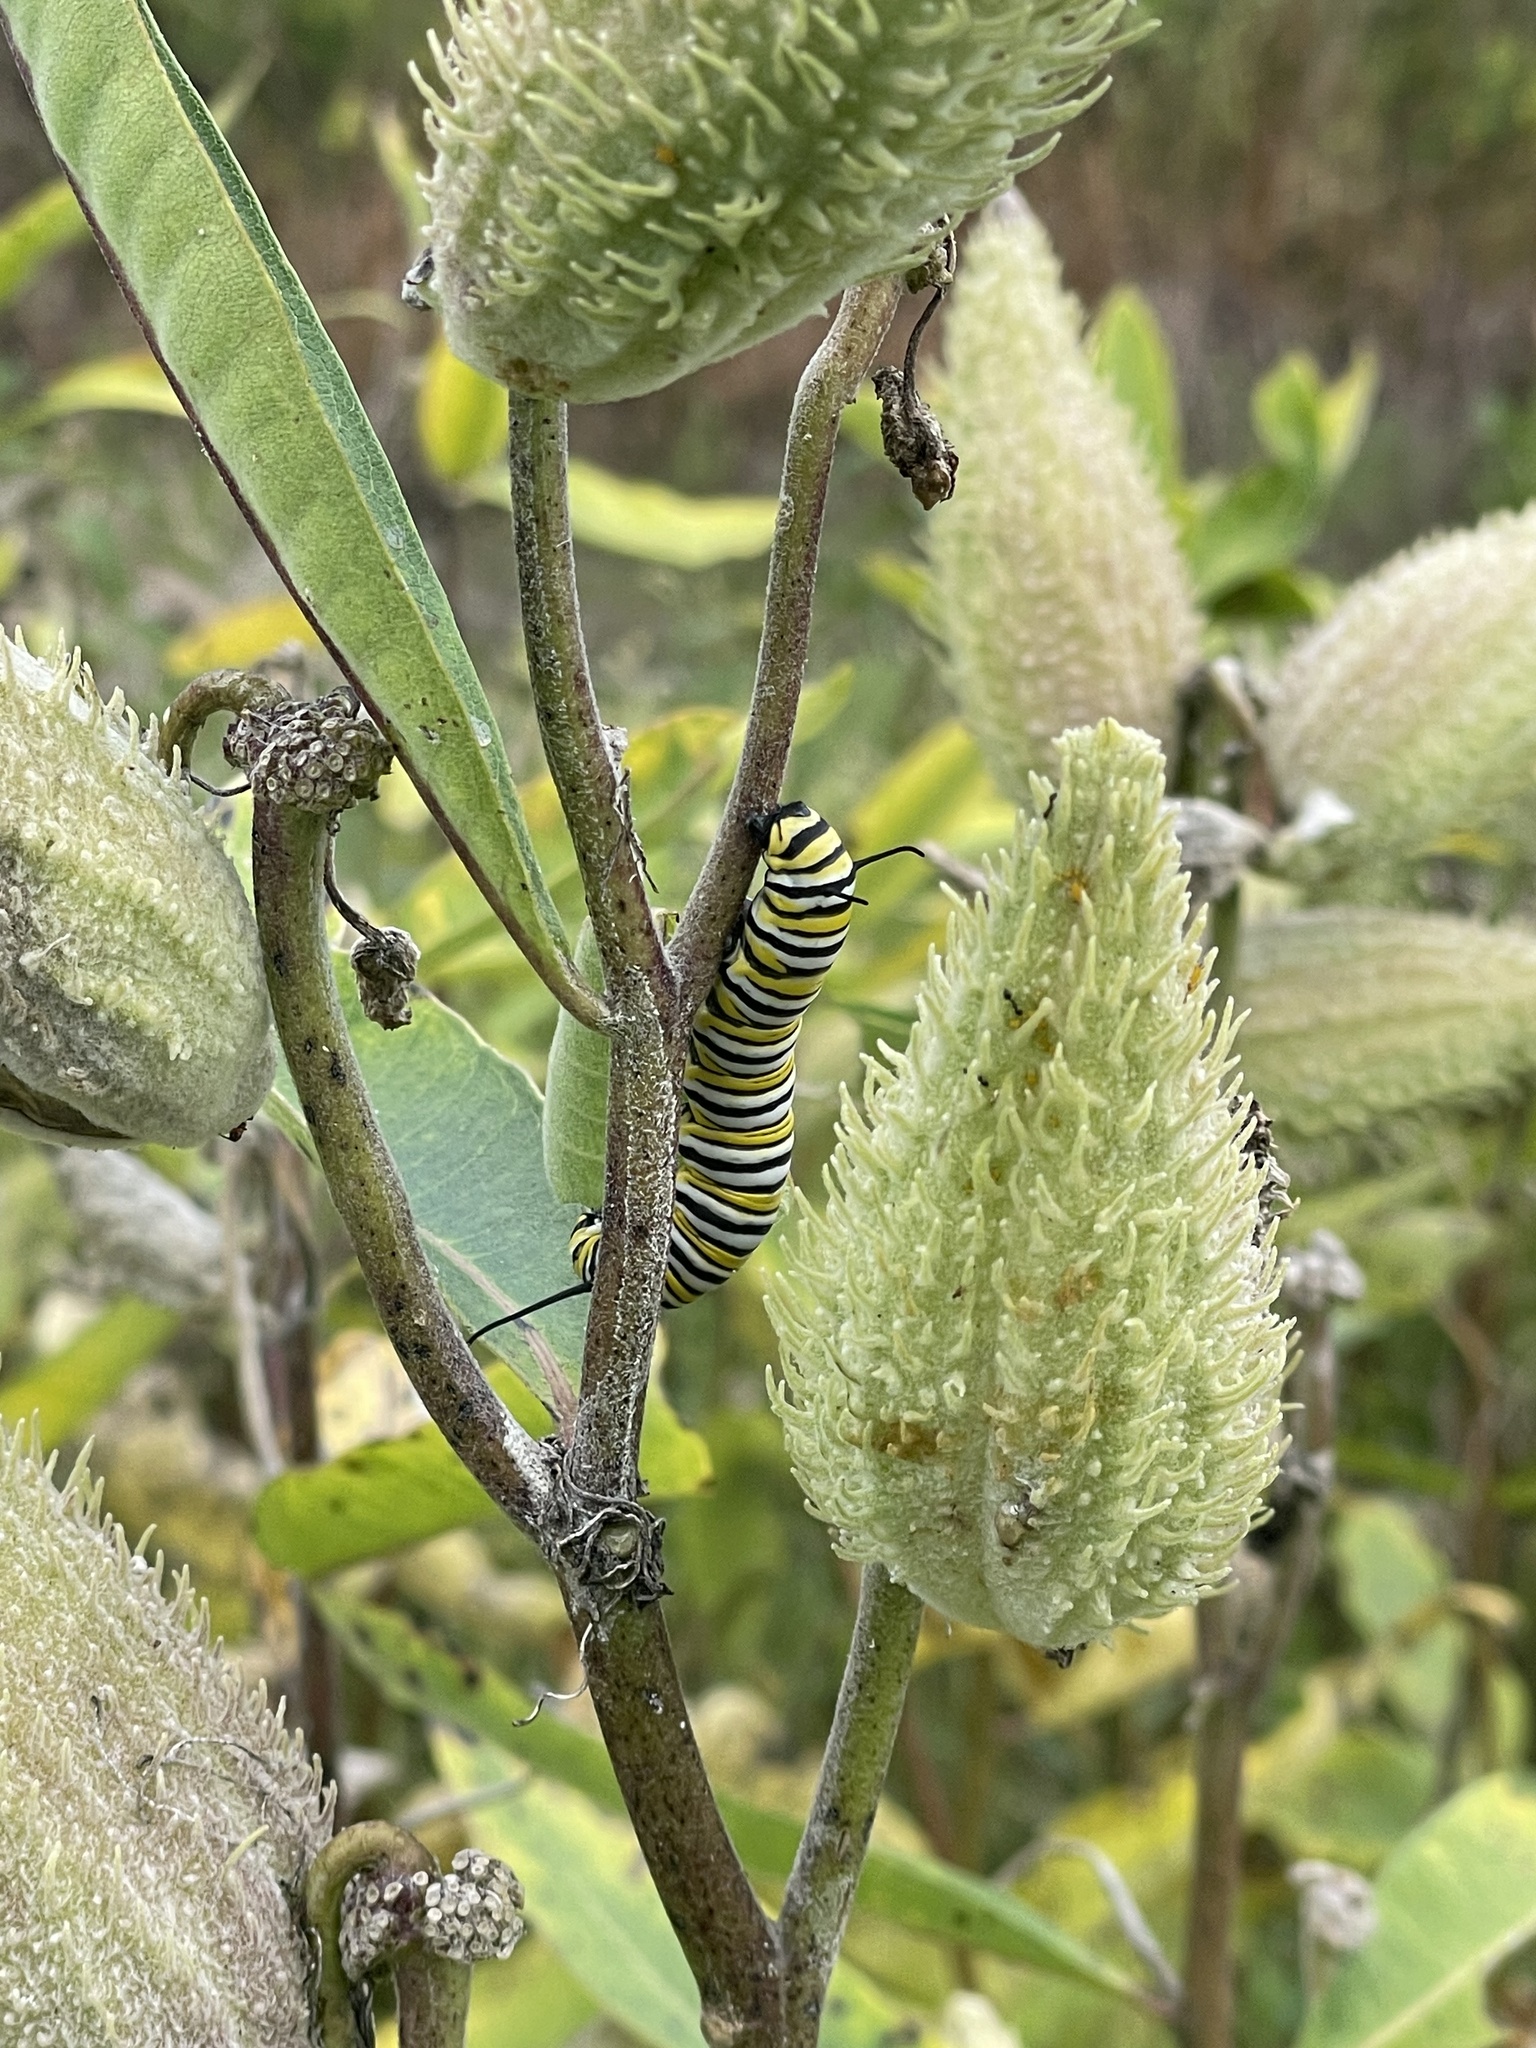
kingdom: Animalia
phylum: Arthropoda
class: Insecta
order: Lepidoptera
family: Nymphalidae
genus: Danaus
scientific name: Danaus plexippus
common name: Monarch
